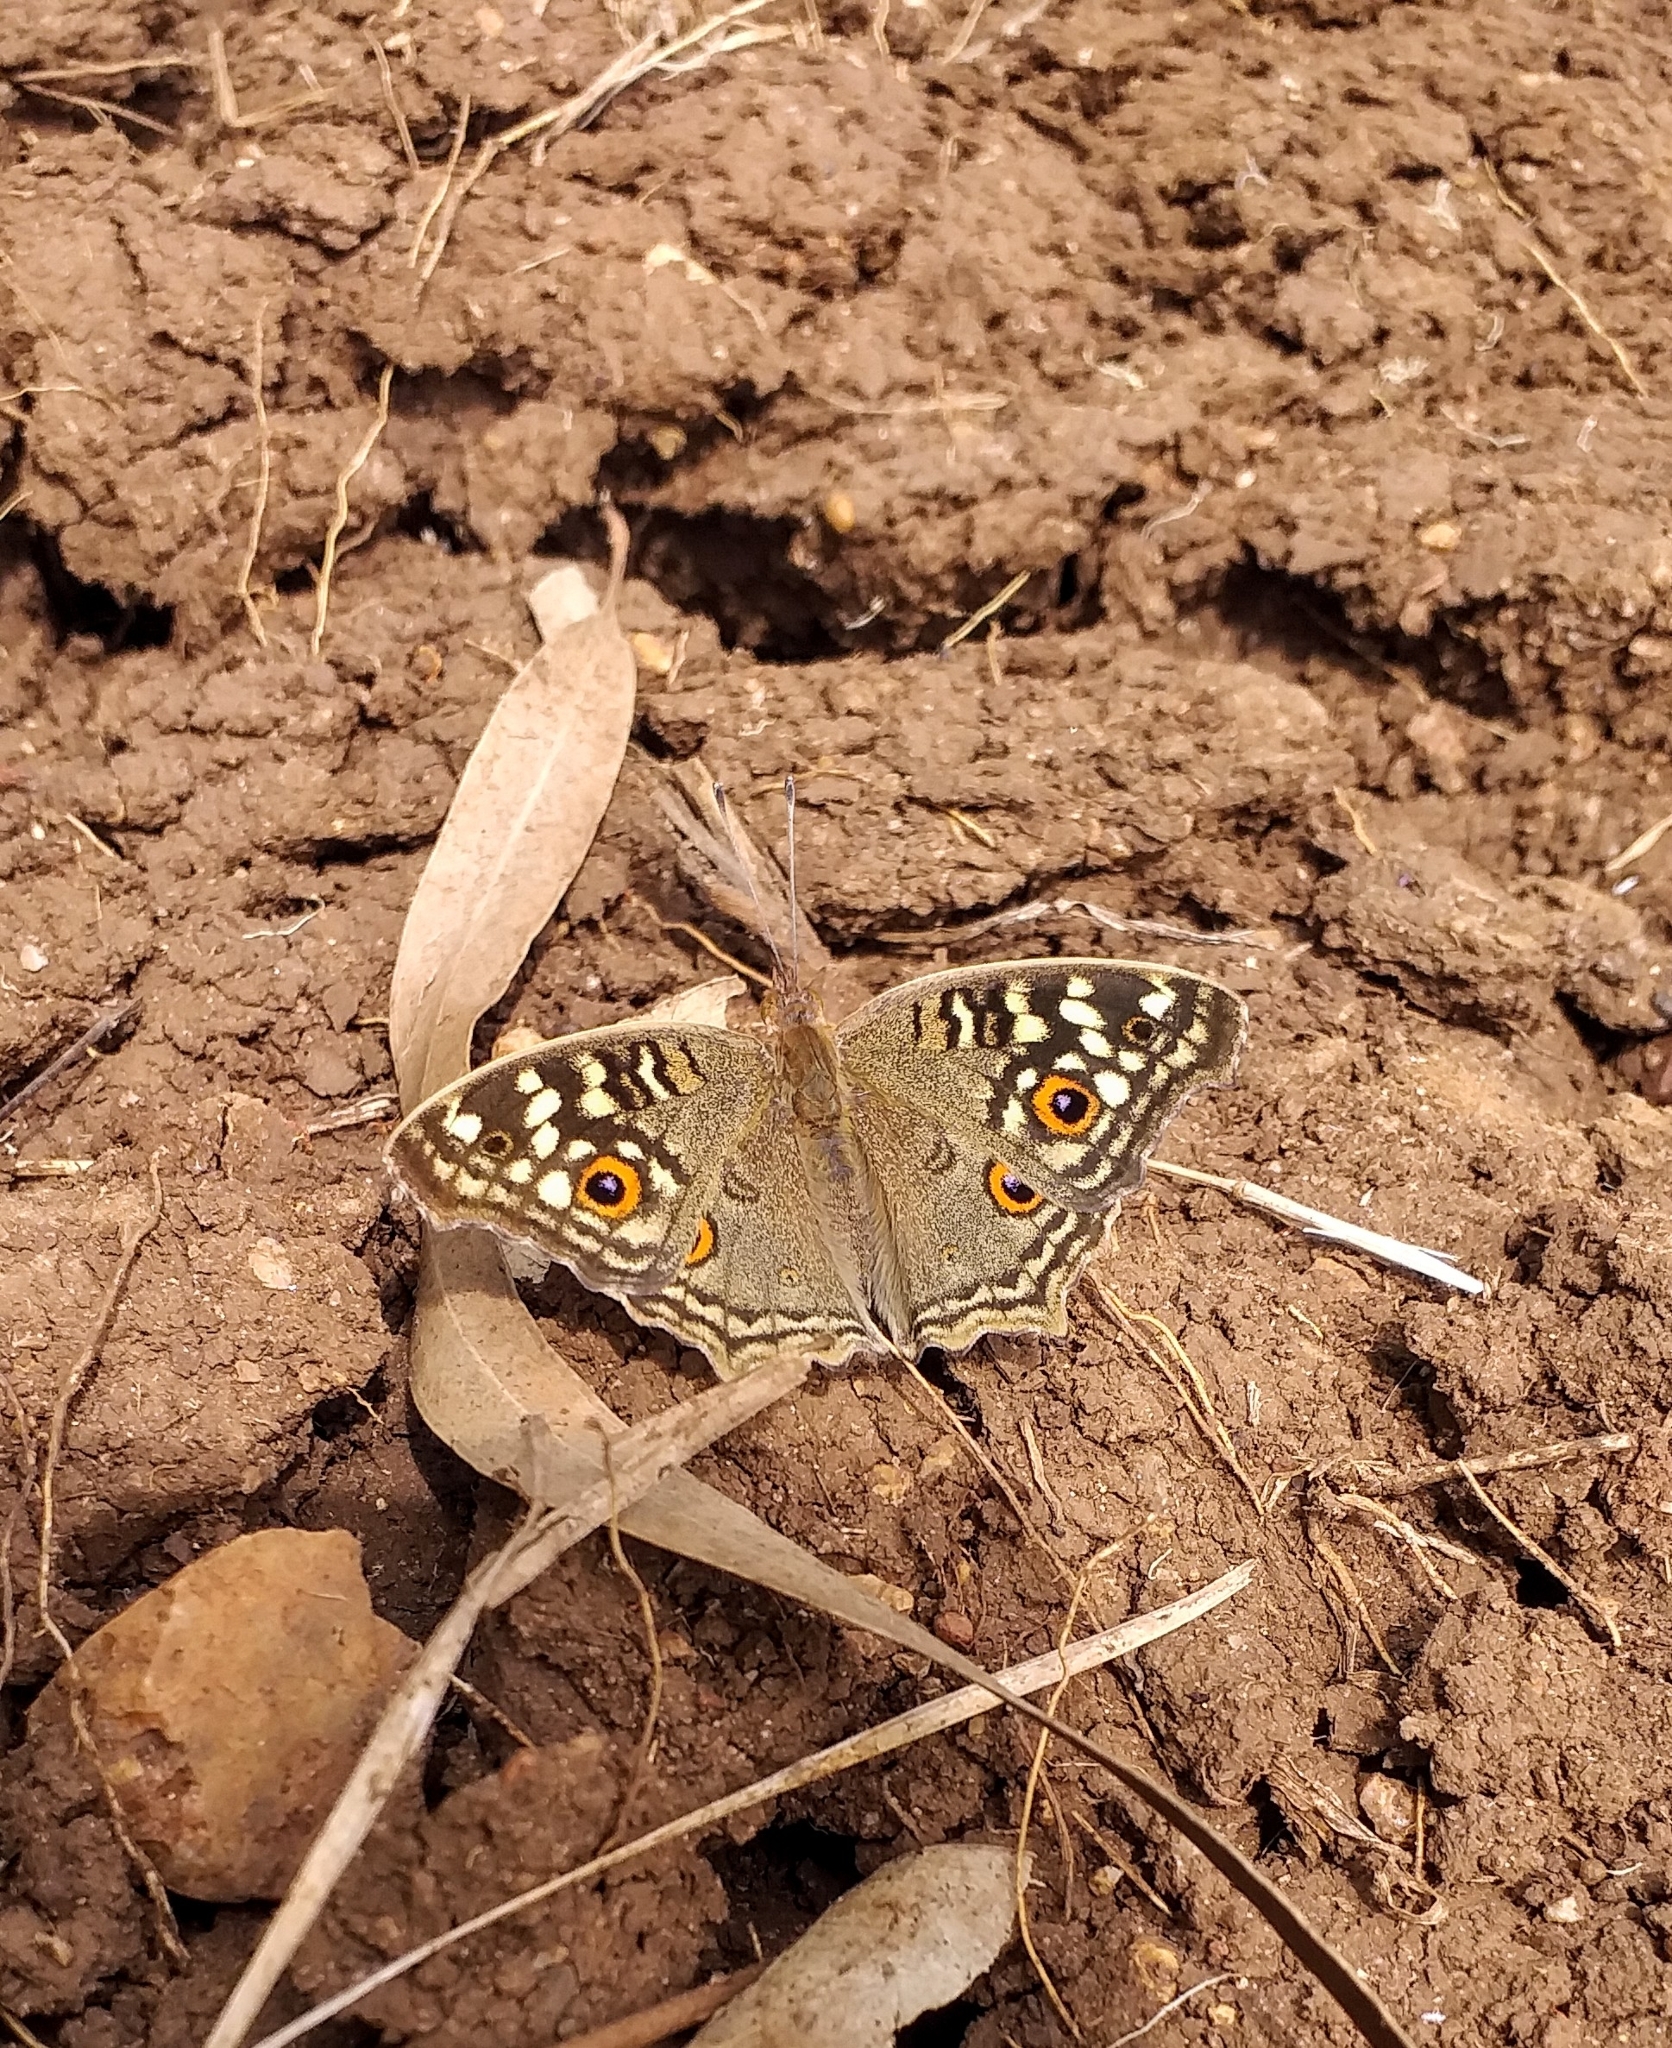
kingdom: Animalia
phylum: Arthropoda
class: Insecta
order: Lepidoptera
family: Nymphalidae
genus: Junonia
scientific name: Junonia lemonias
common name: Lemon pansy
